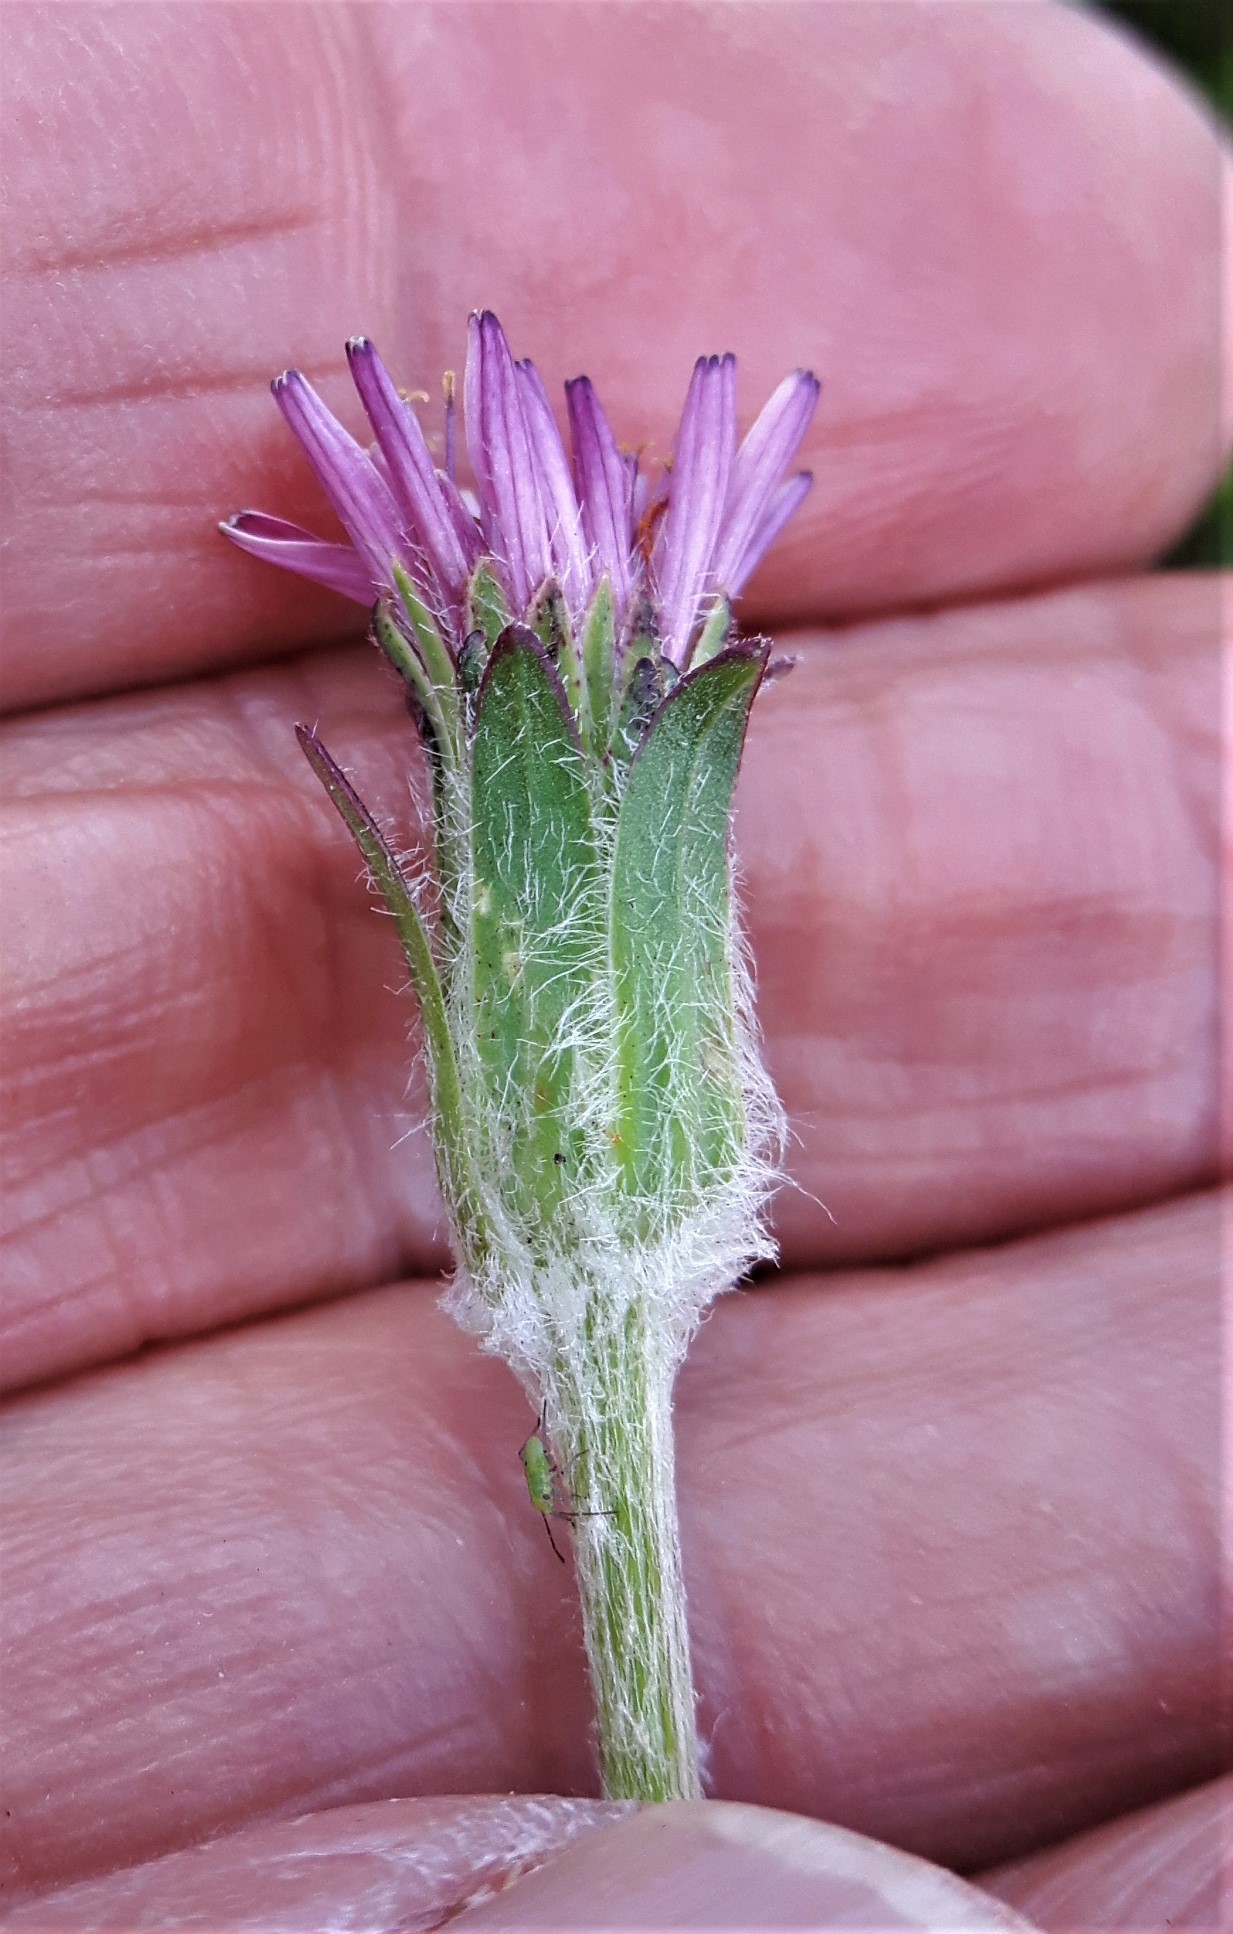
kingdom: Plantae
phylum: Tracheophyta
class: Magnoliopsida
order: Asterales
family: Asteraceae
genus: Agoseris
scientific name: Agoseris aurantiaca
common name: Mountain agoseris
